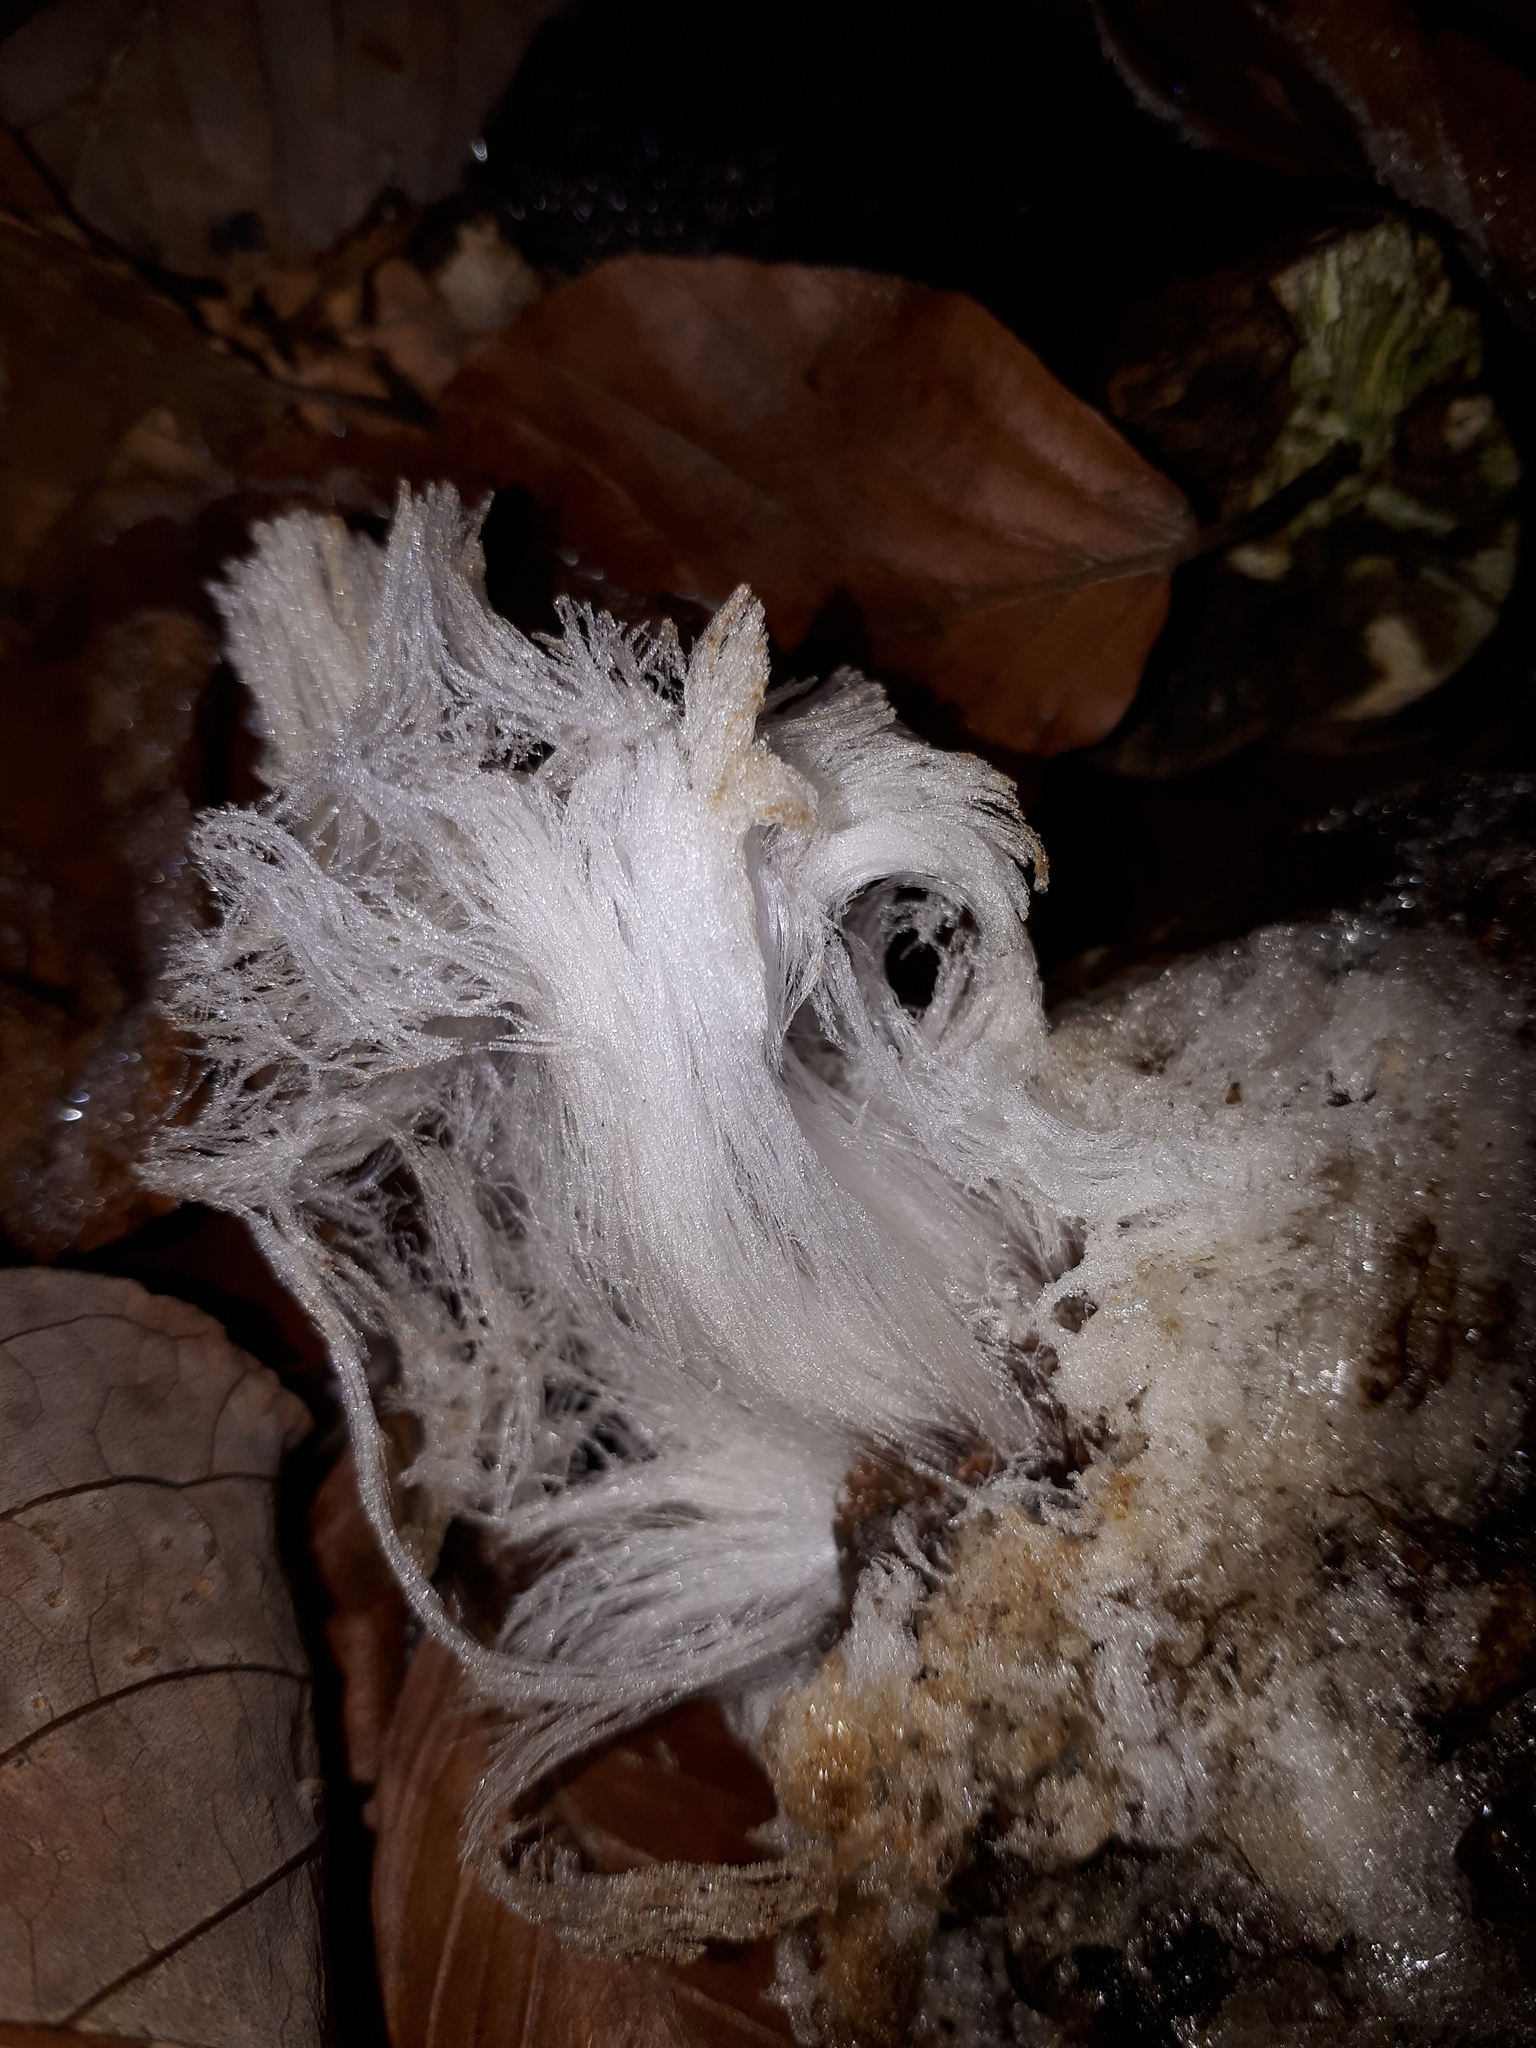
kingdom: Fungi
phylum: Basidiomycota
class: Agaricomycetes
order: Auriculariales
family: Auriculariaceae
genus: Exidiopsis
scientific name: Exidiopsis effusa
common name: Hair ice crust
